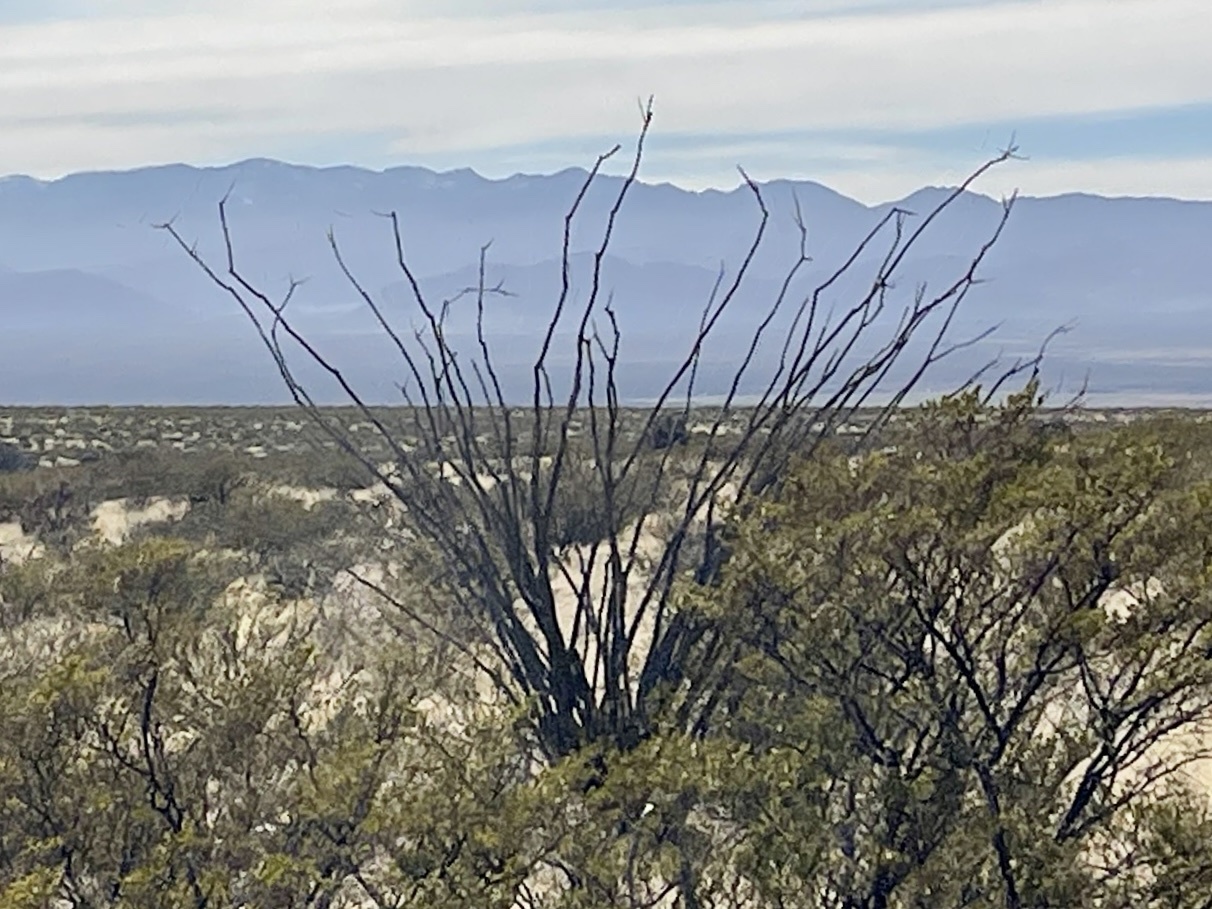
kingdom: Plantae
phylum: Tracheophyta
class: Magnoliopsida
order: Ericales
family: Fouquieriaceae
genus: Fouquieria
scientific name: Fouquieria splendens
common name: Vine-cactus
